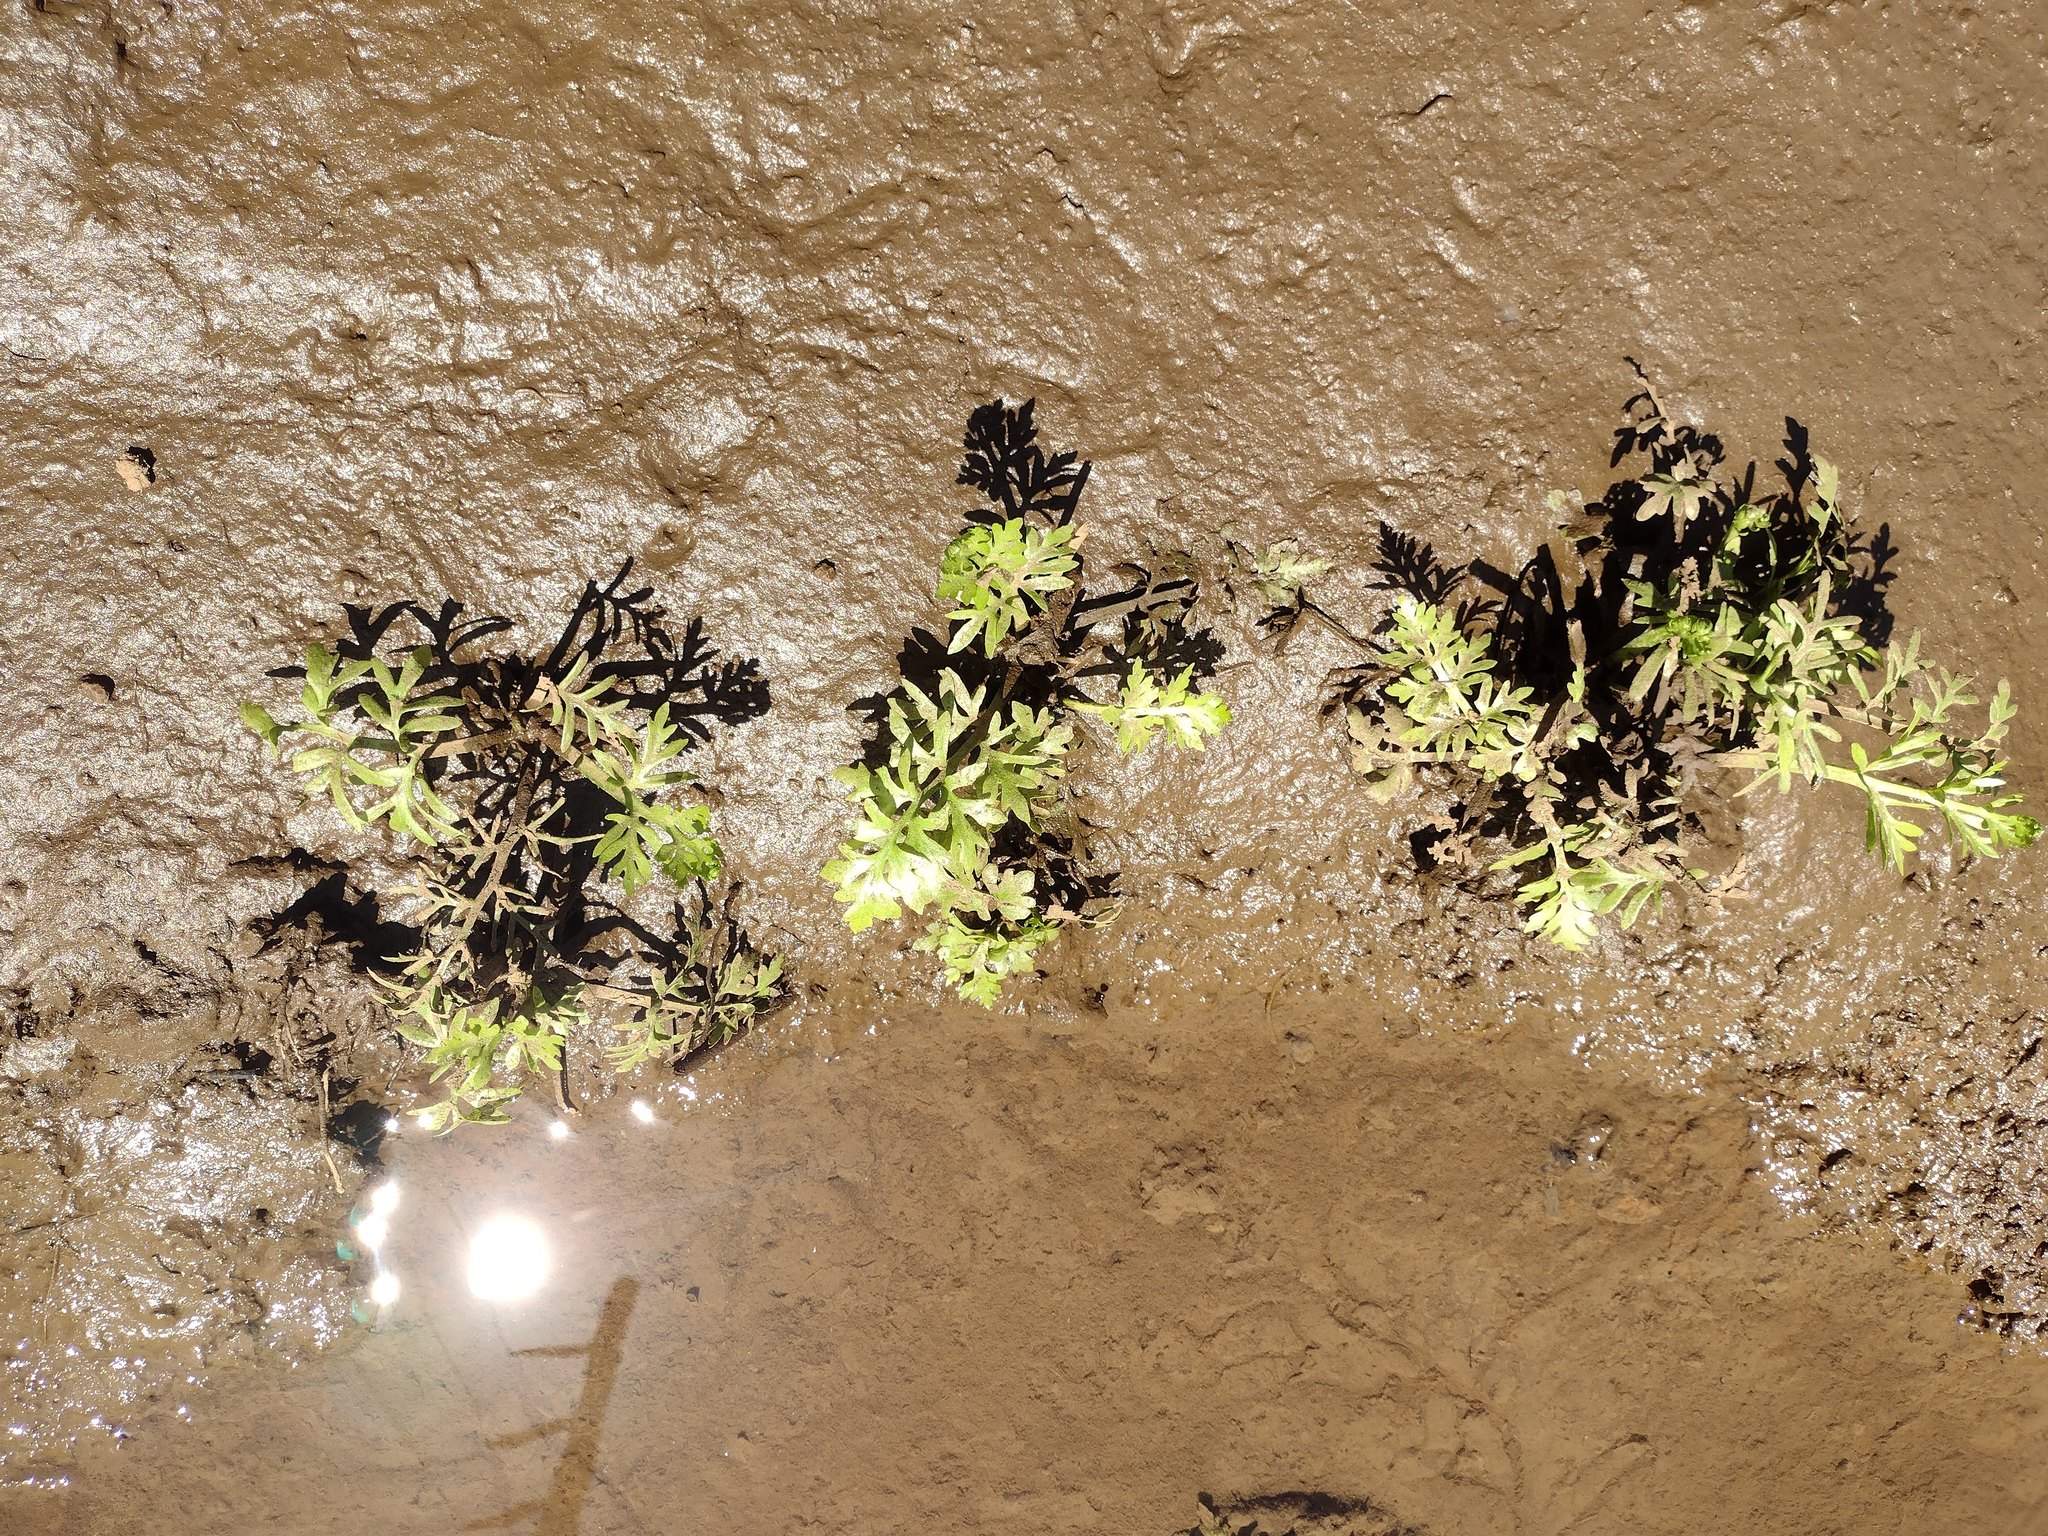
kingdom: Plantae
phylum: Tracheophyta
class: Polypodiopsida
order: Polypodiales
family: Pteridaceae
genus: Ceratopteris
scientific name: Ceratopteris thalictroides
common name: Water fern
